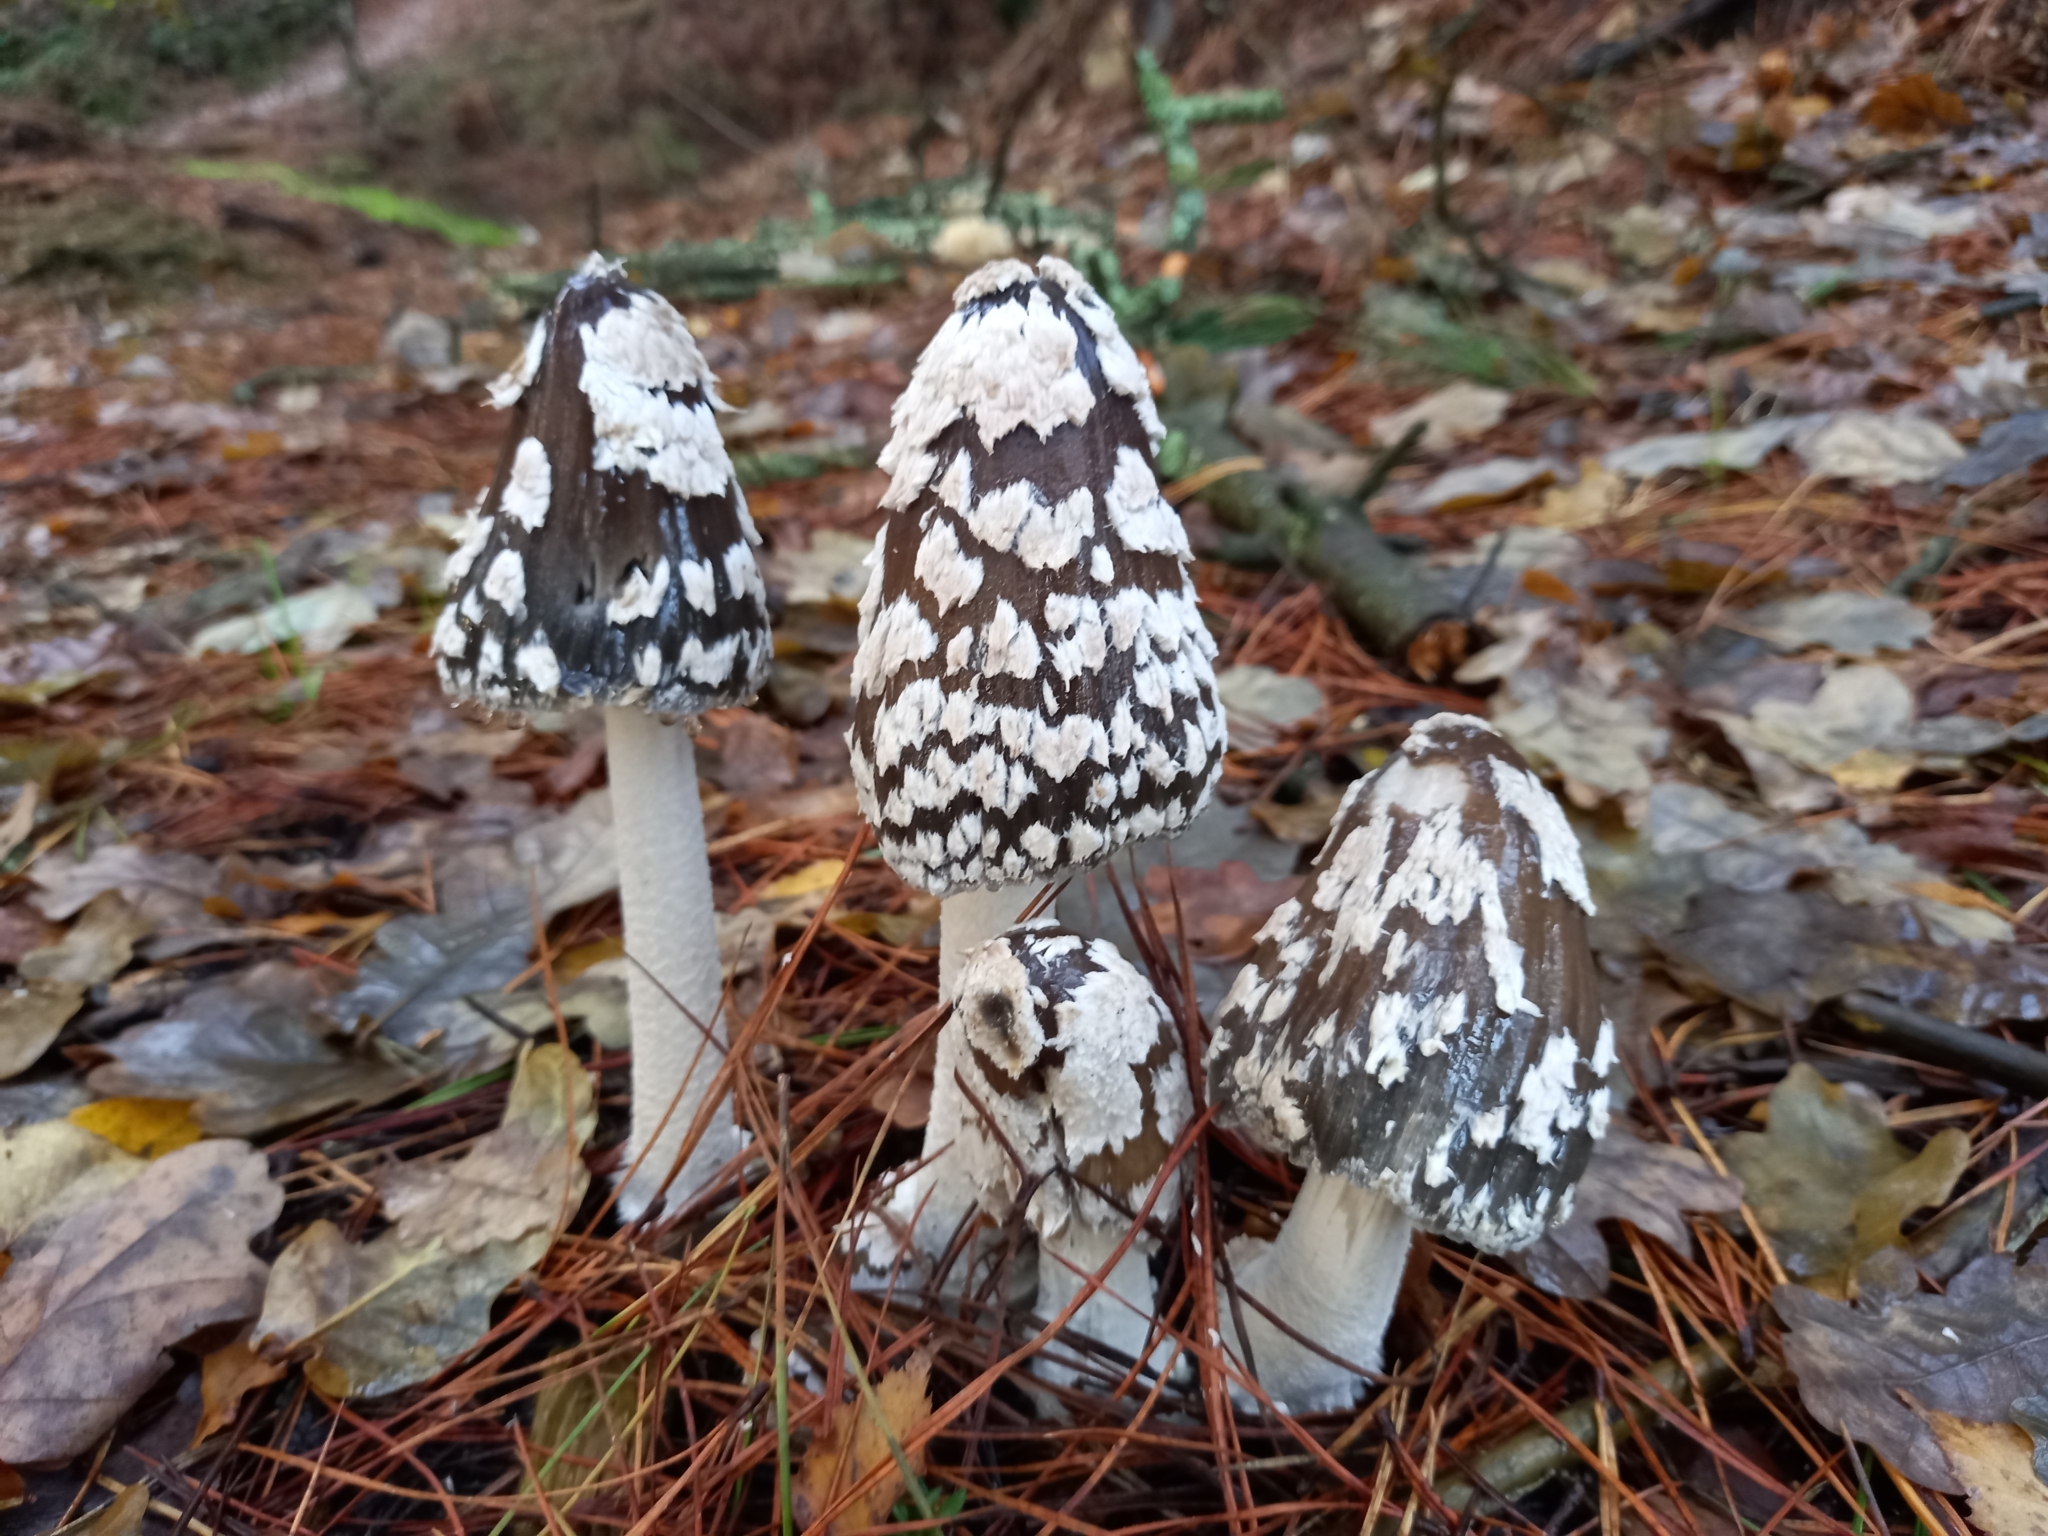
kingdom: Fungi
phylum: Basidiomycota
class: Agaricomycetes
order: Agaricales
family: Psathyrellaceae
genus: Coprinopsis
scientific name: Coprinopsis picacea
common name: Magpie inkcap
